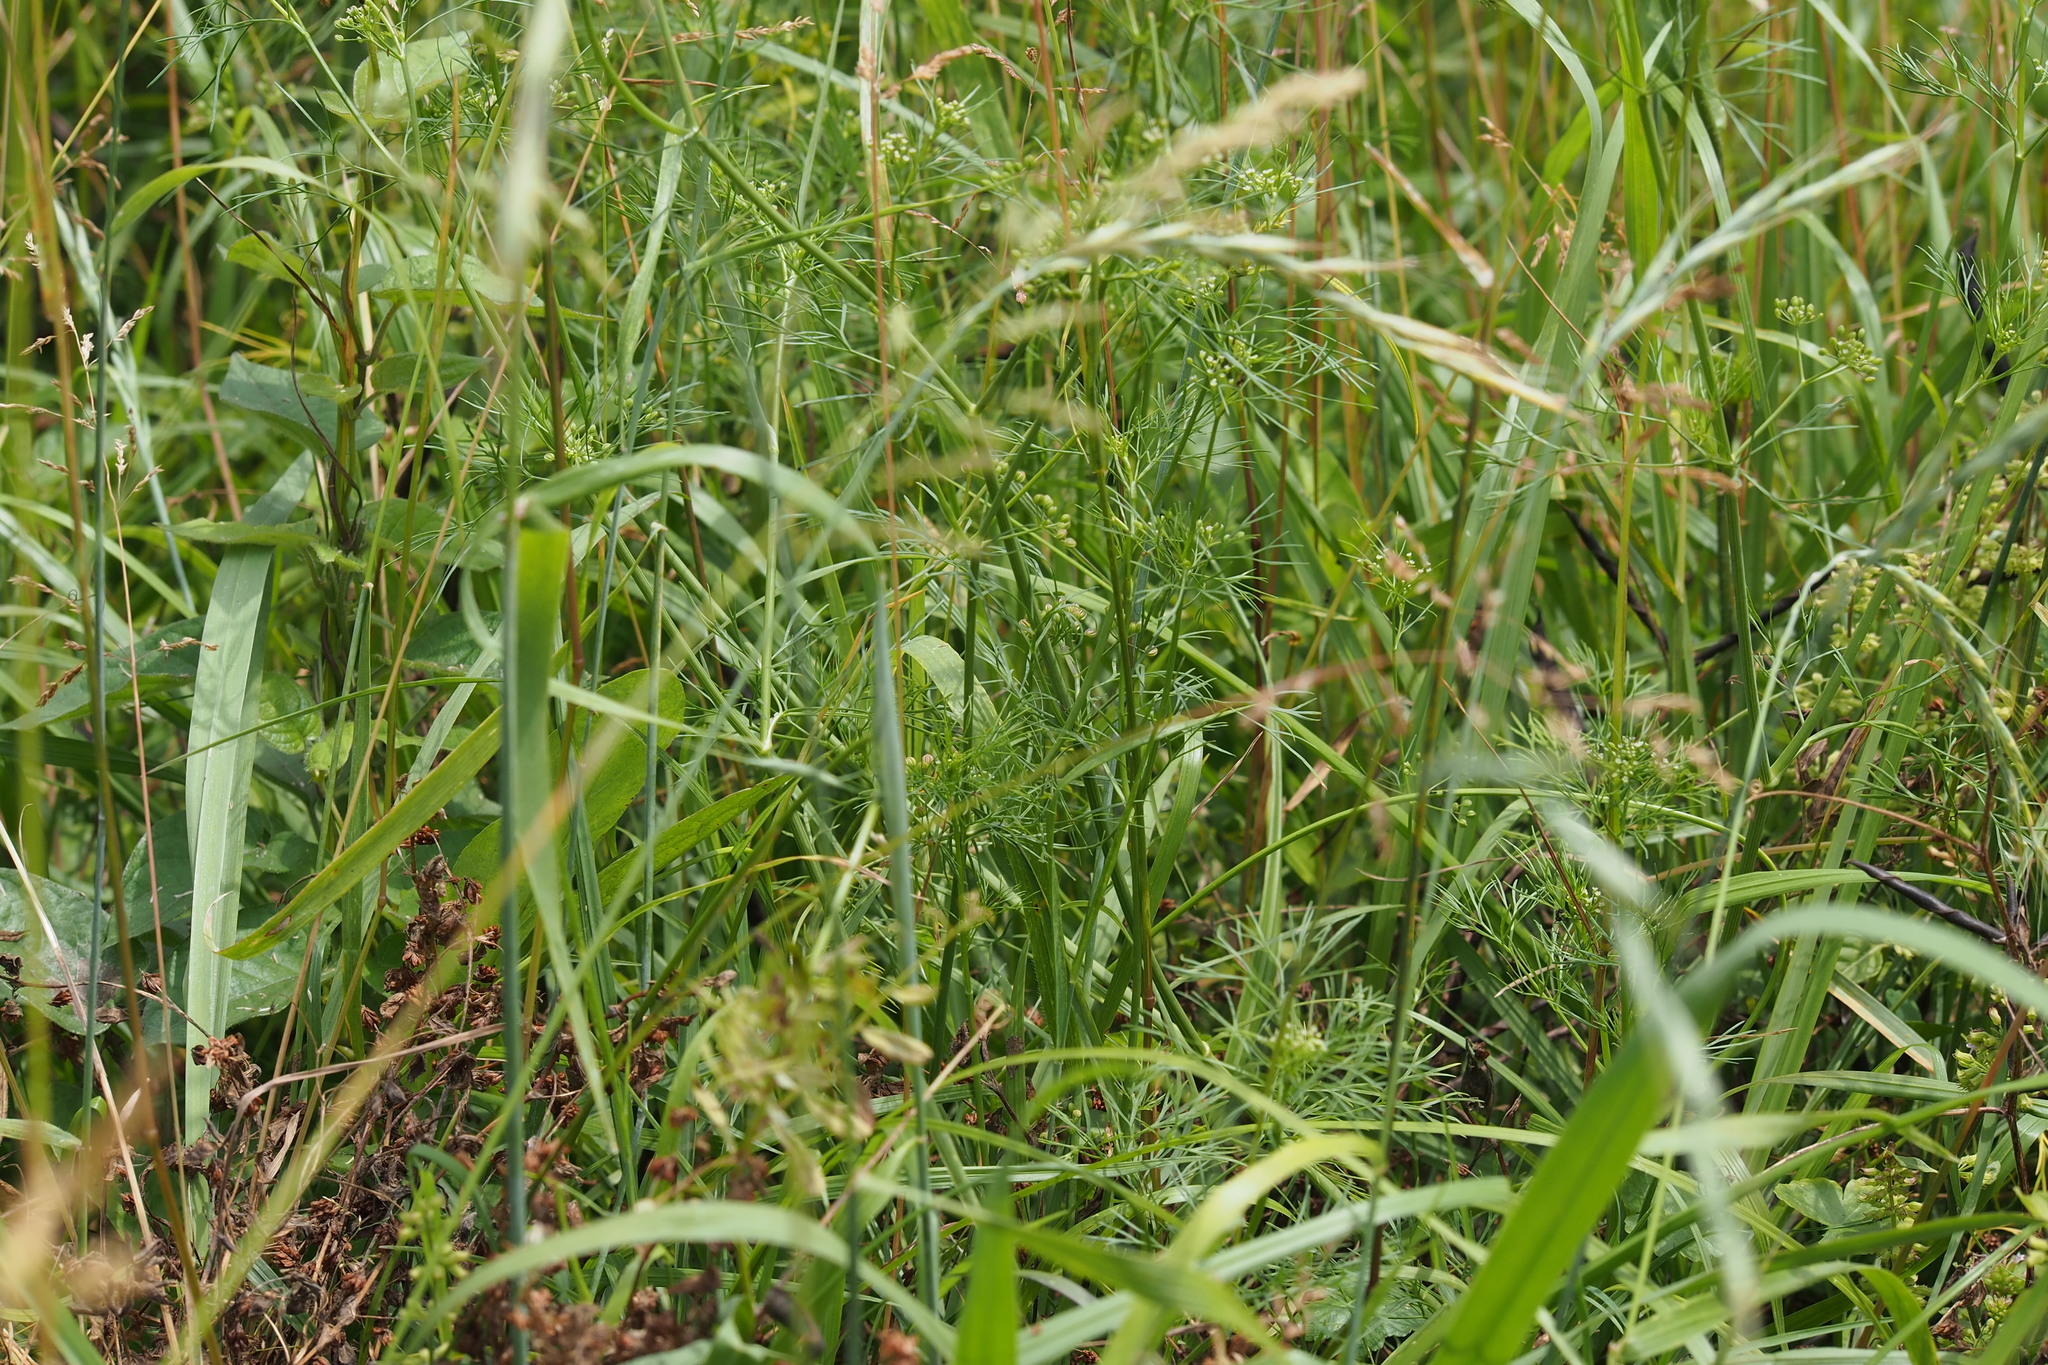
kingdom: Plantae
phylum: Tracheophyta
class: Magnoliopsida
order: Apiales
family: Apiaceae
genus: Cyclospermum
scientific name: Cyclospermum leptophyllum
